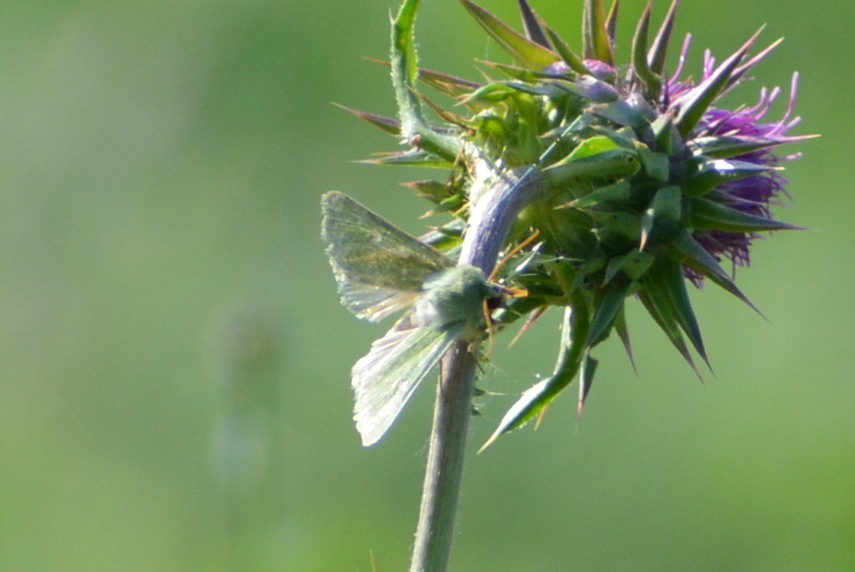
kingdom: Animalia
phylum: Arthropoda
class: Insecta
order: Lepidoptera
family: Noctuidae
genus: Calamia
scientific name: Calamia tridens
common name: Burren green
